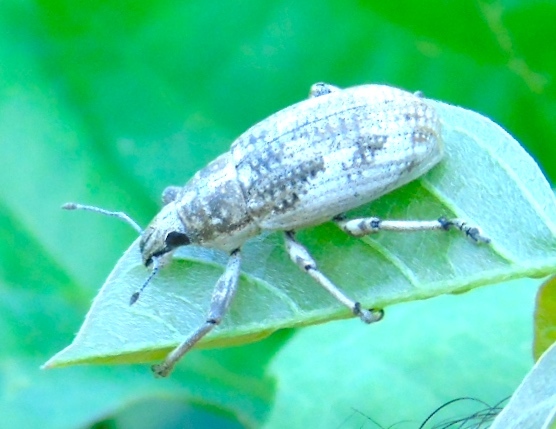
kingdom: Animalia
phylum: Arthropoda
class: Insecta
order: Coleoptera
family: Curculionidae
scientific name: Curculionidae
